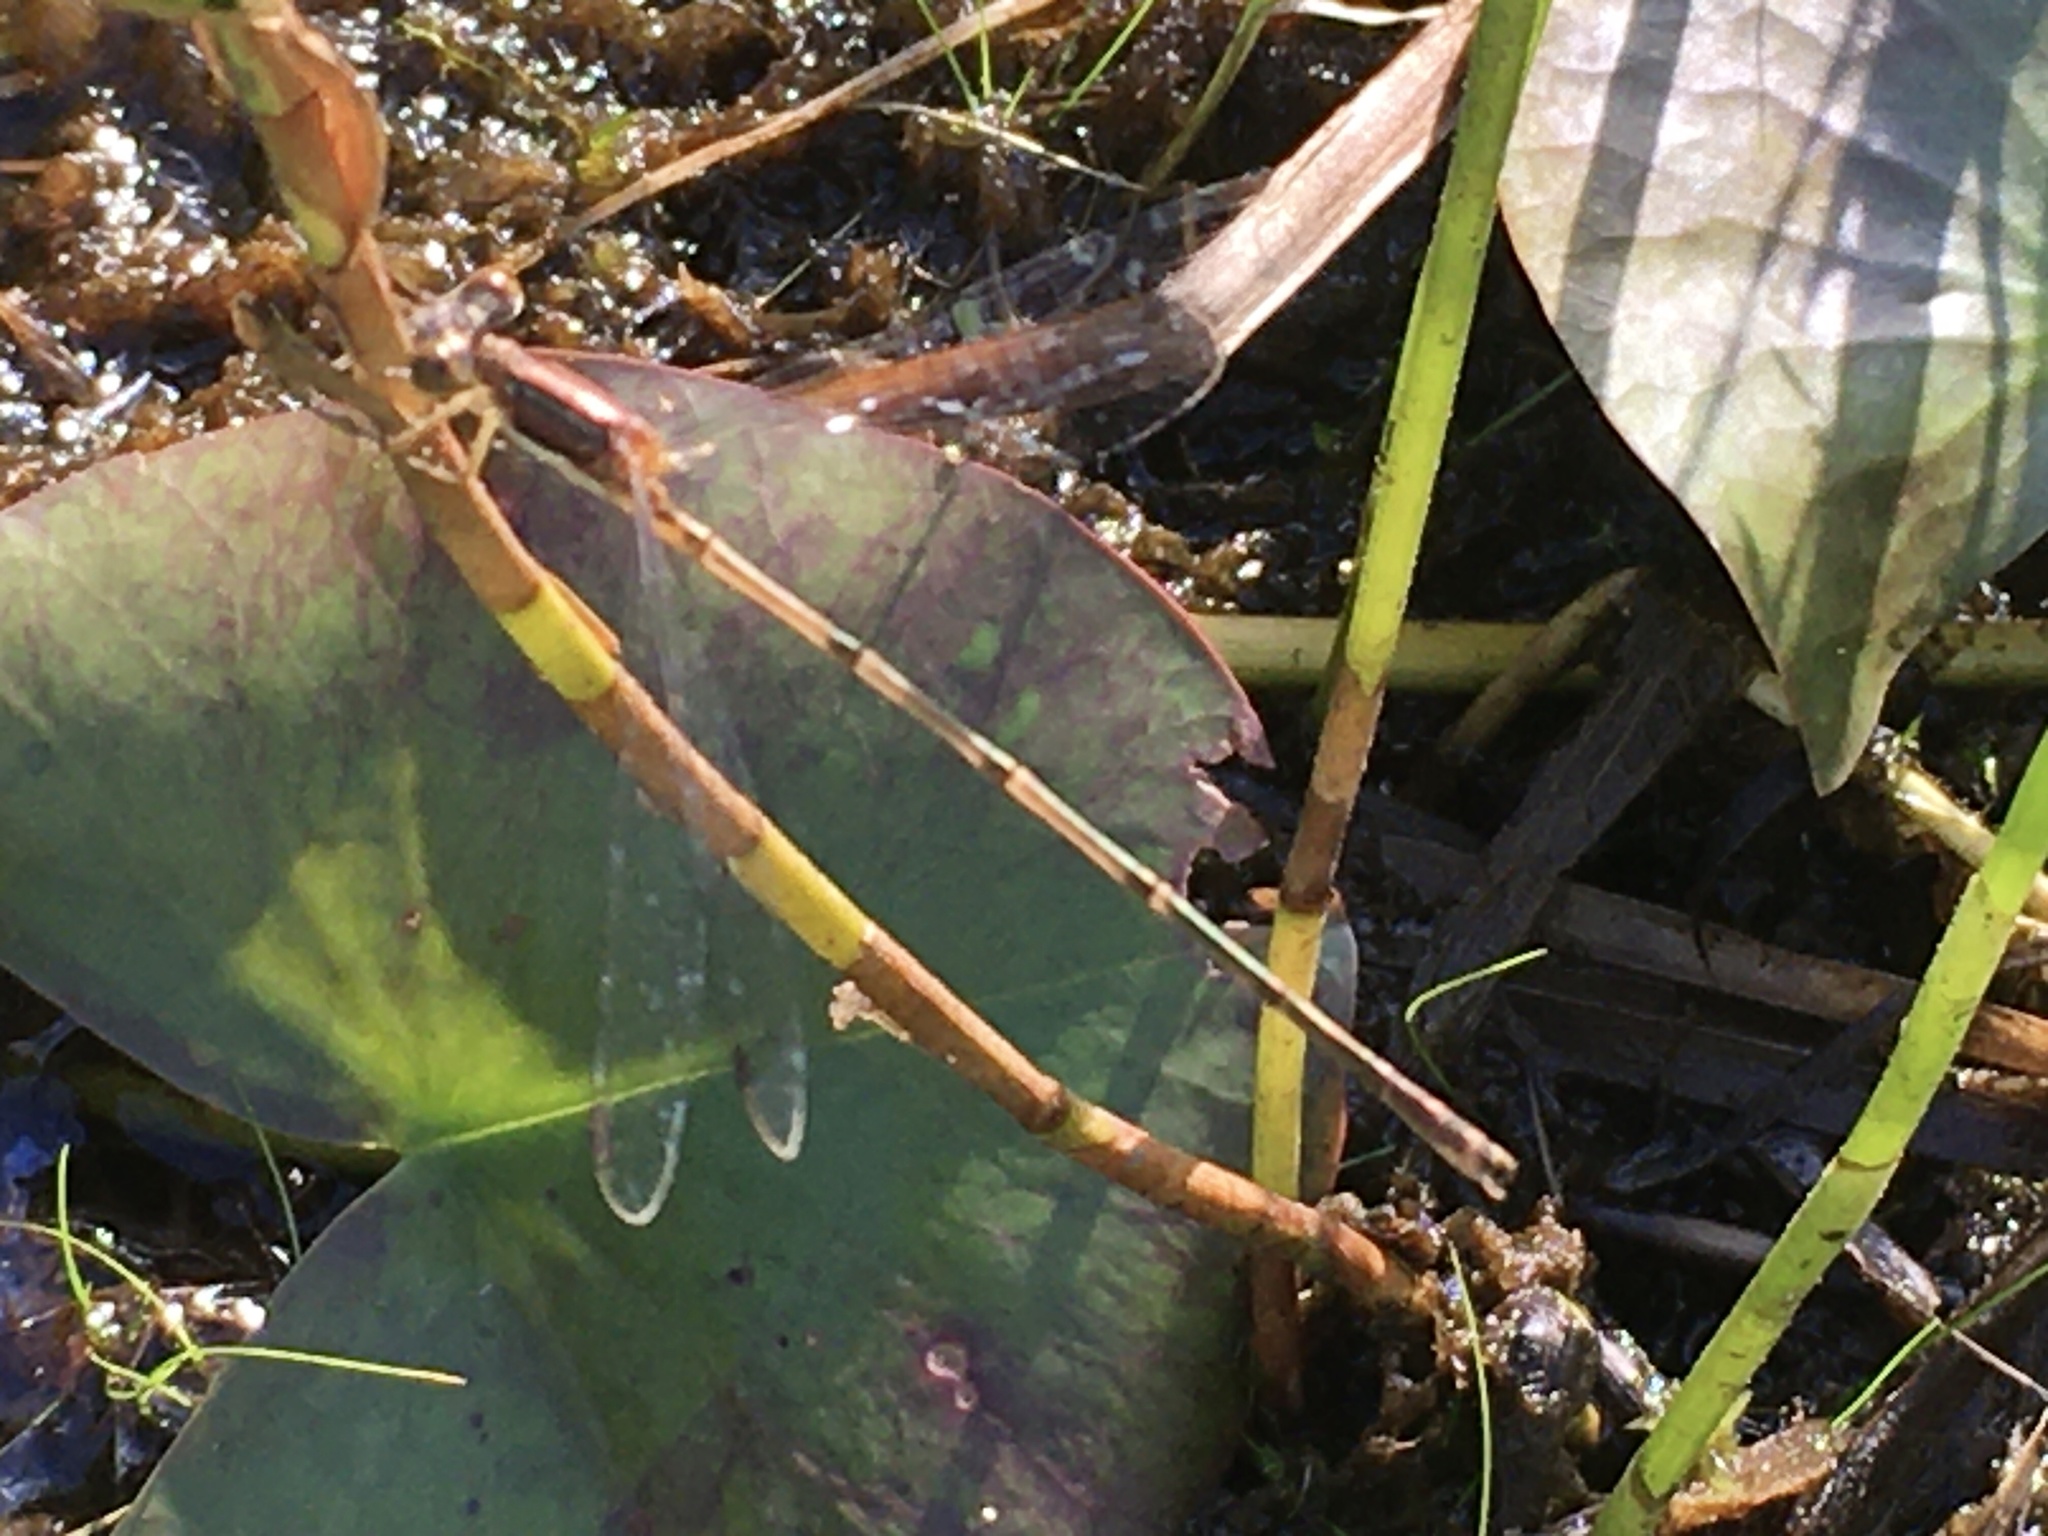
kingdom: Animalia
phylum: Arthropoda
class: Insecta
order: Odonata
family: Lestidae
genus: Lestes
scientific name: Lestes rectangularis
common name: Slender spreadwing
